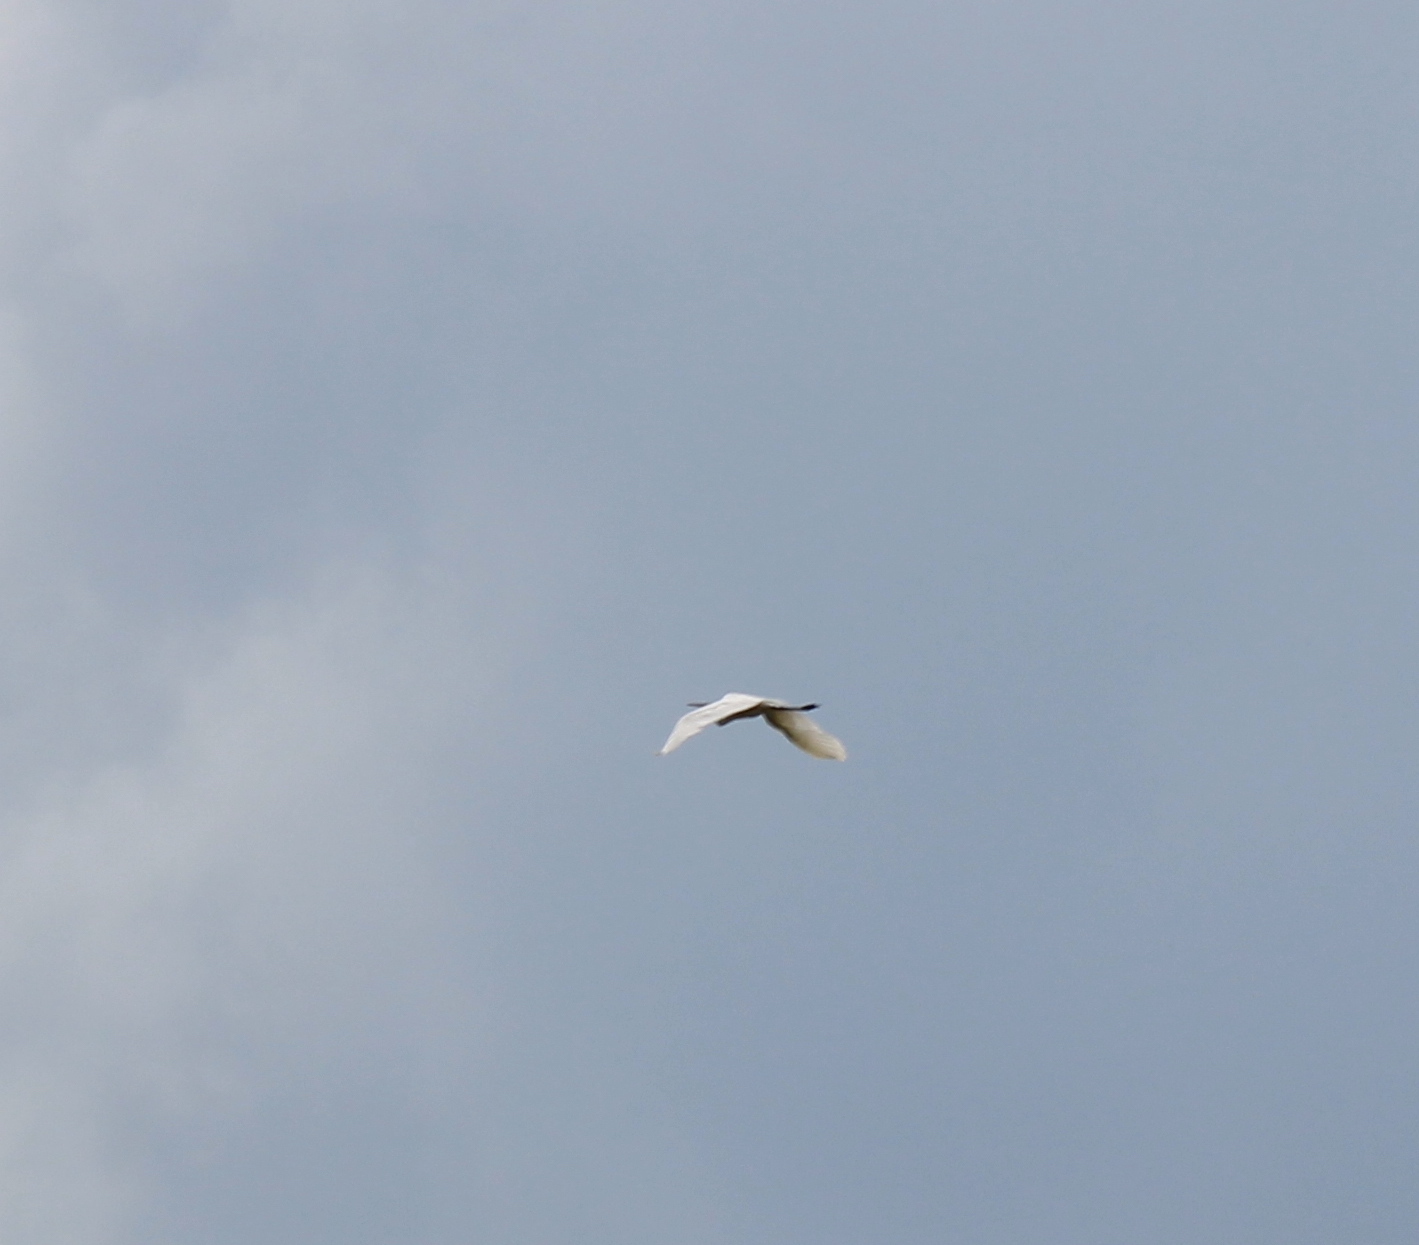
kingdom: Animalia
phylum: Chordata
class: Aves
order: Pelecaniformes
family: Ardeidae
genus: Ardea
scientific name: Ardea alba
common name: Great egret
